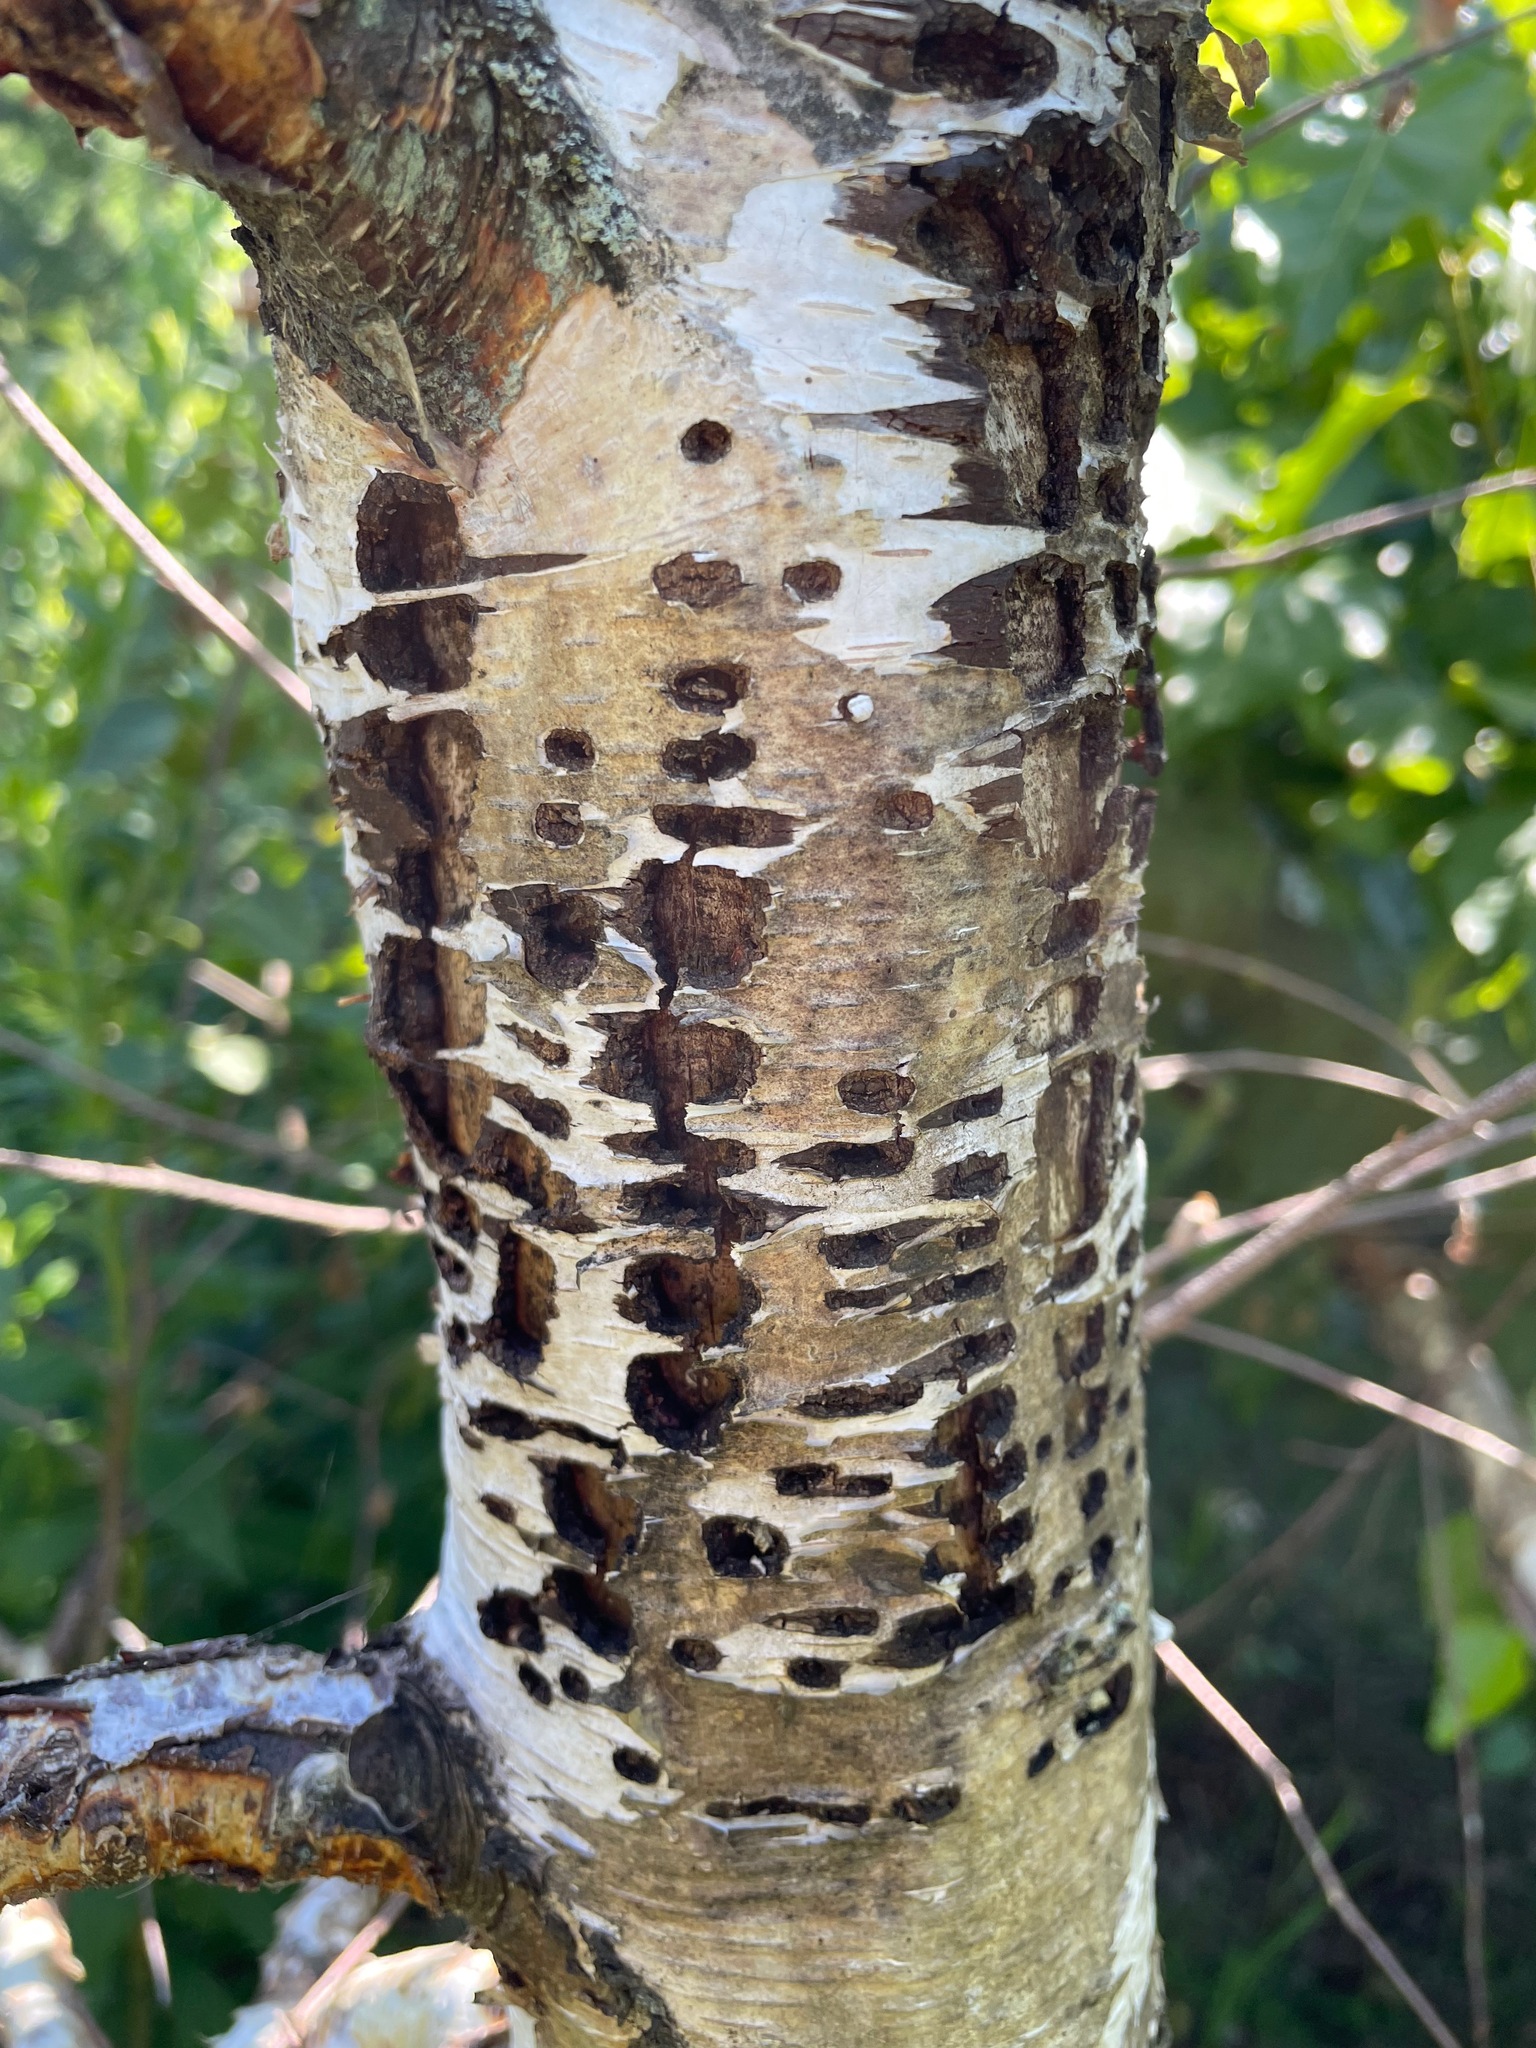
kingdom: Animalia
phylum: Chordata
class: Aves
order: Piciformes
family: Picidae
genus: Sphyrapicus
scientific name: Sphyrapicus varius
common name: Yellow-bellied sapsucker
